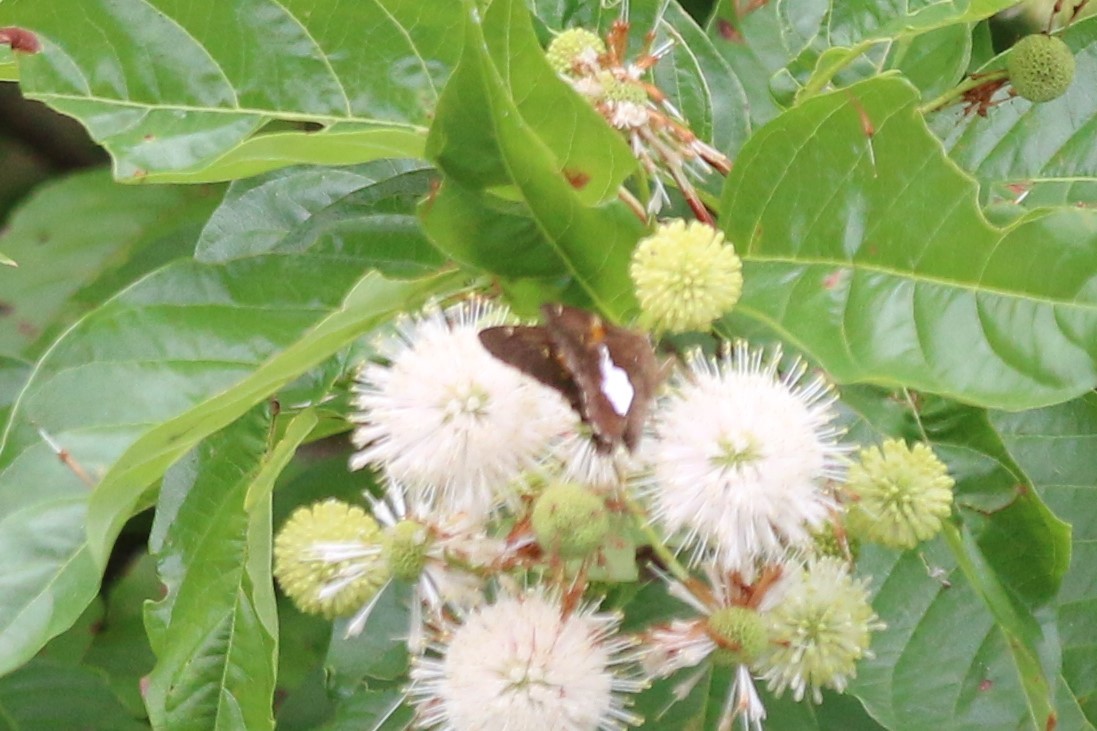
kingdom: Animalia
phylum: Arthropoda
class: Insecta
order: Lepidoptera
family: Hesperiidae
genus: Epargyreus
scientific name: Epargyreus clarus
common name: Silver-spotted skipper
